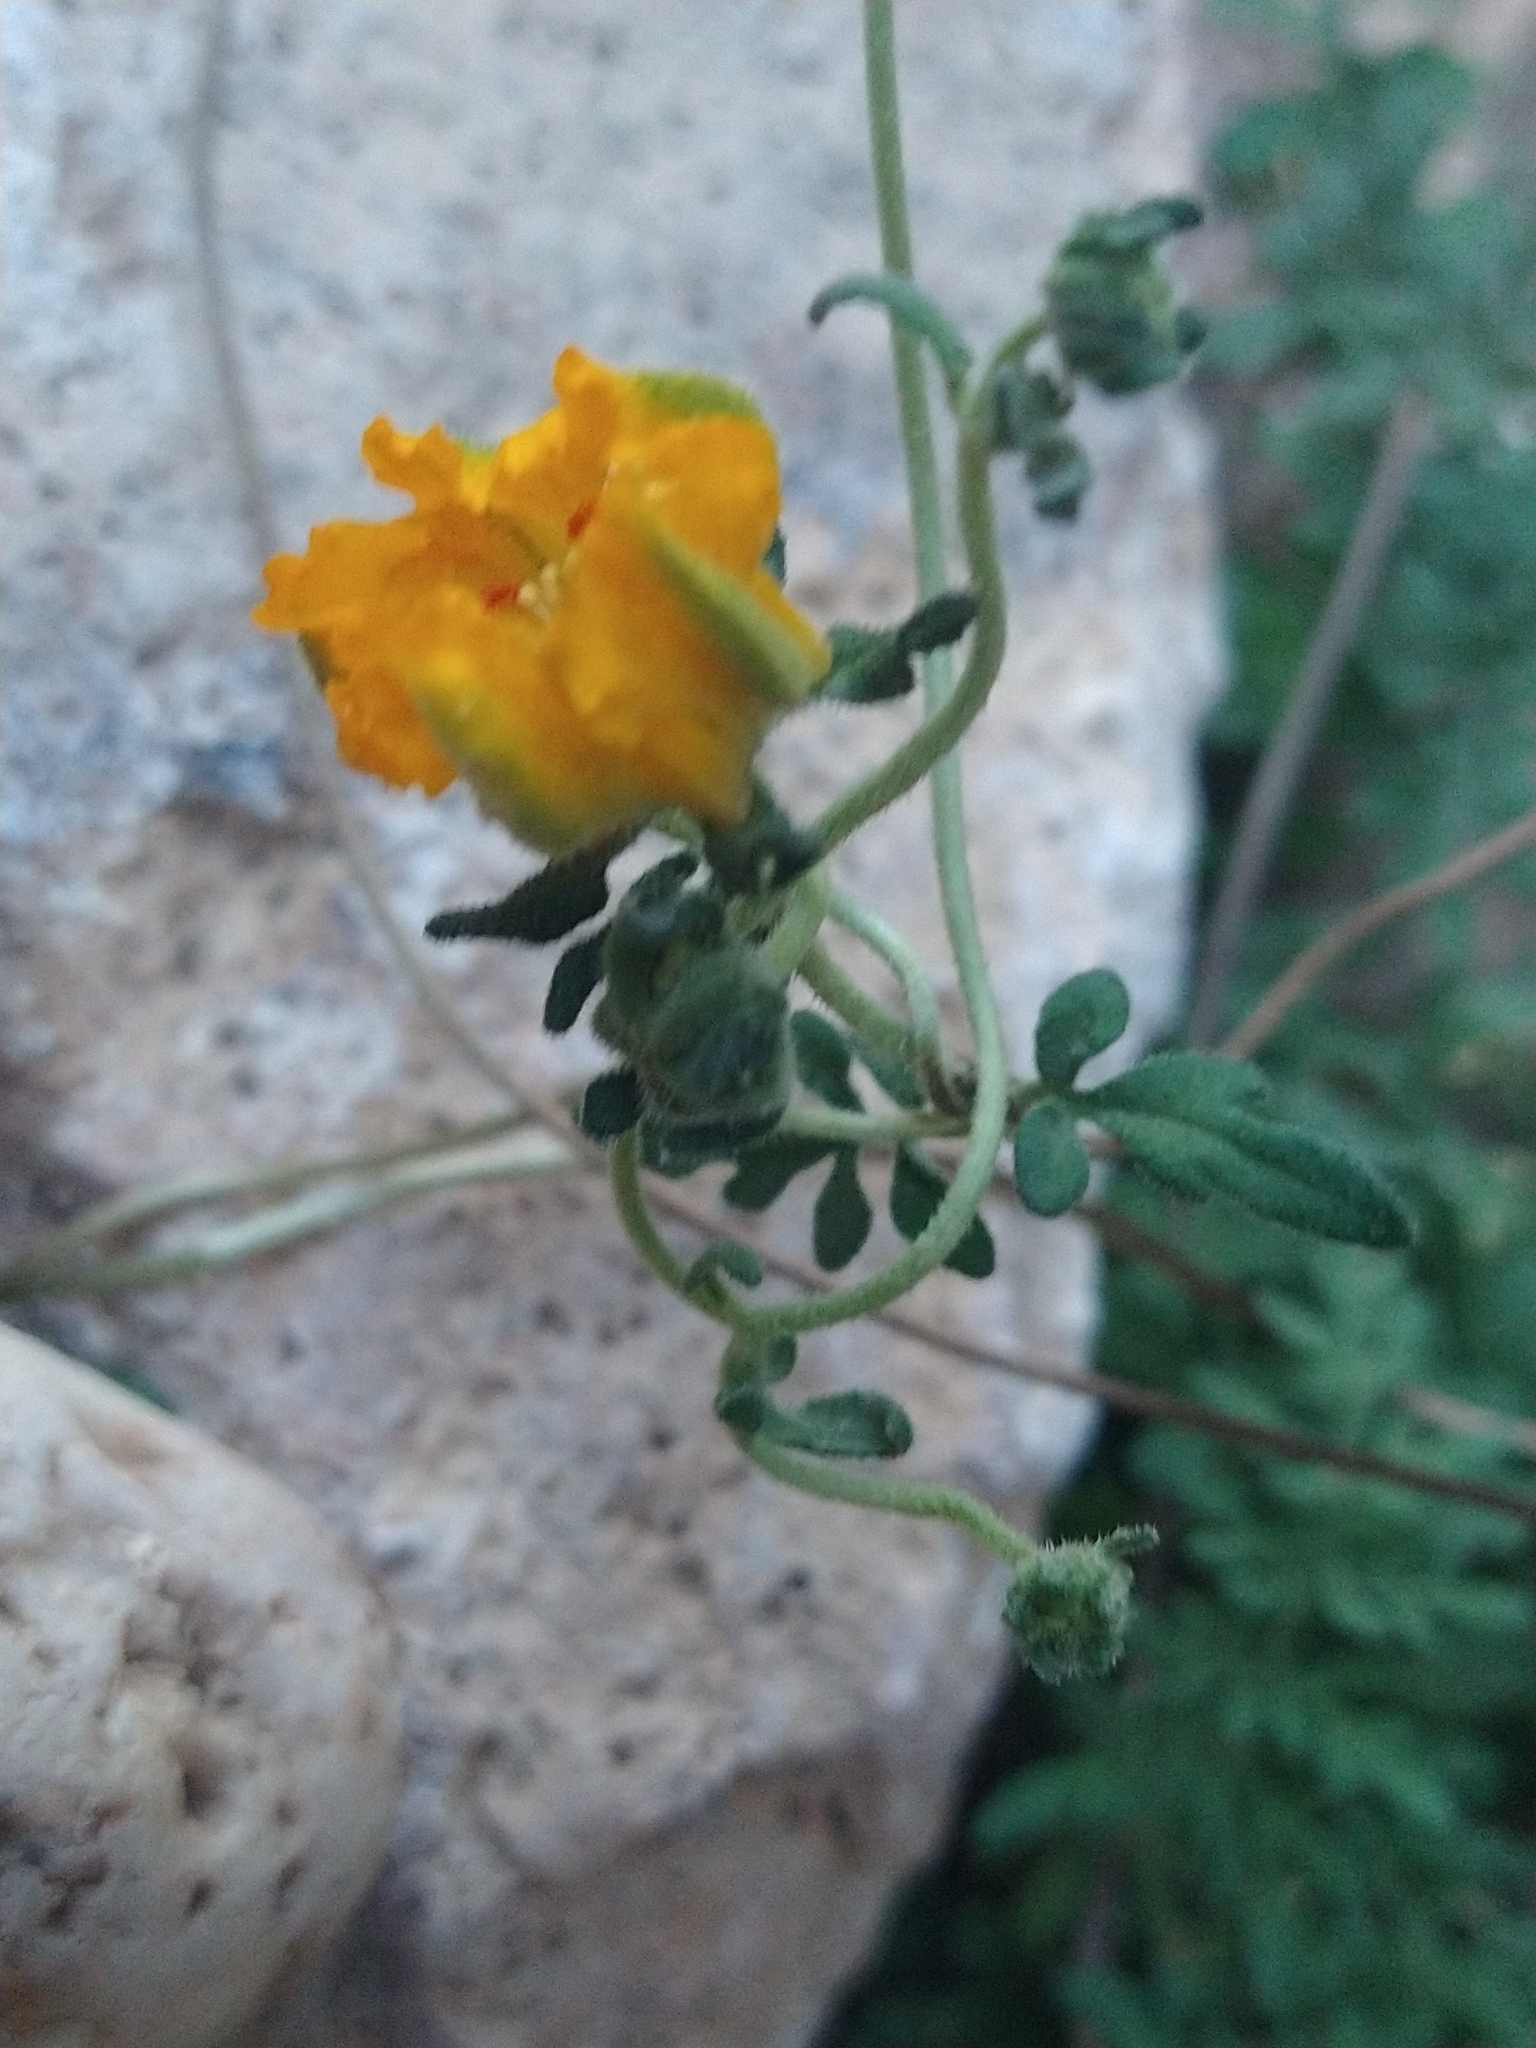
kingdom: Plantae
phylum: Tracheophyta
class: Magnoliopsida
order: Cornales
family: Loasaceae
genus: Pinnasa
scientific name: Pinnasa bergii
